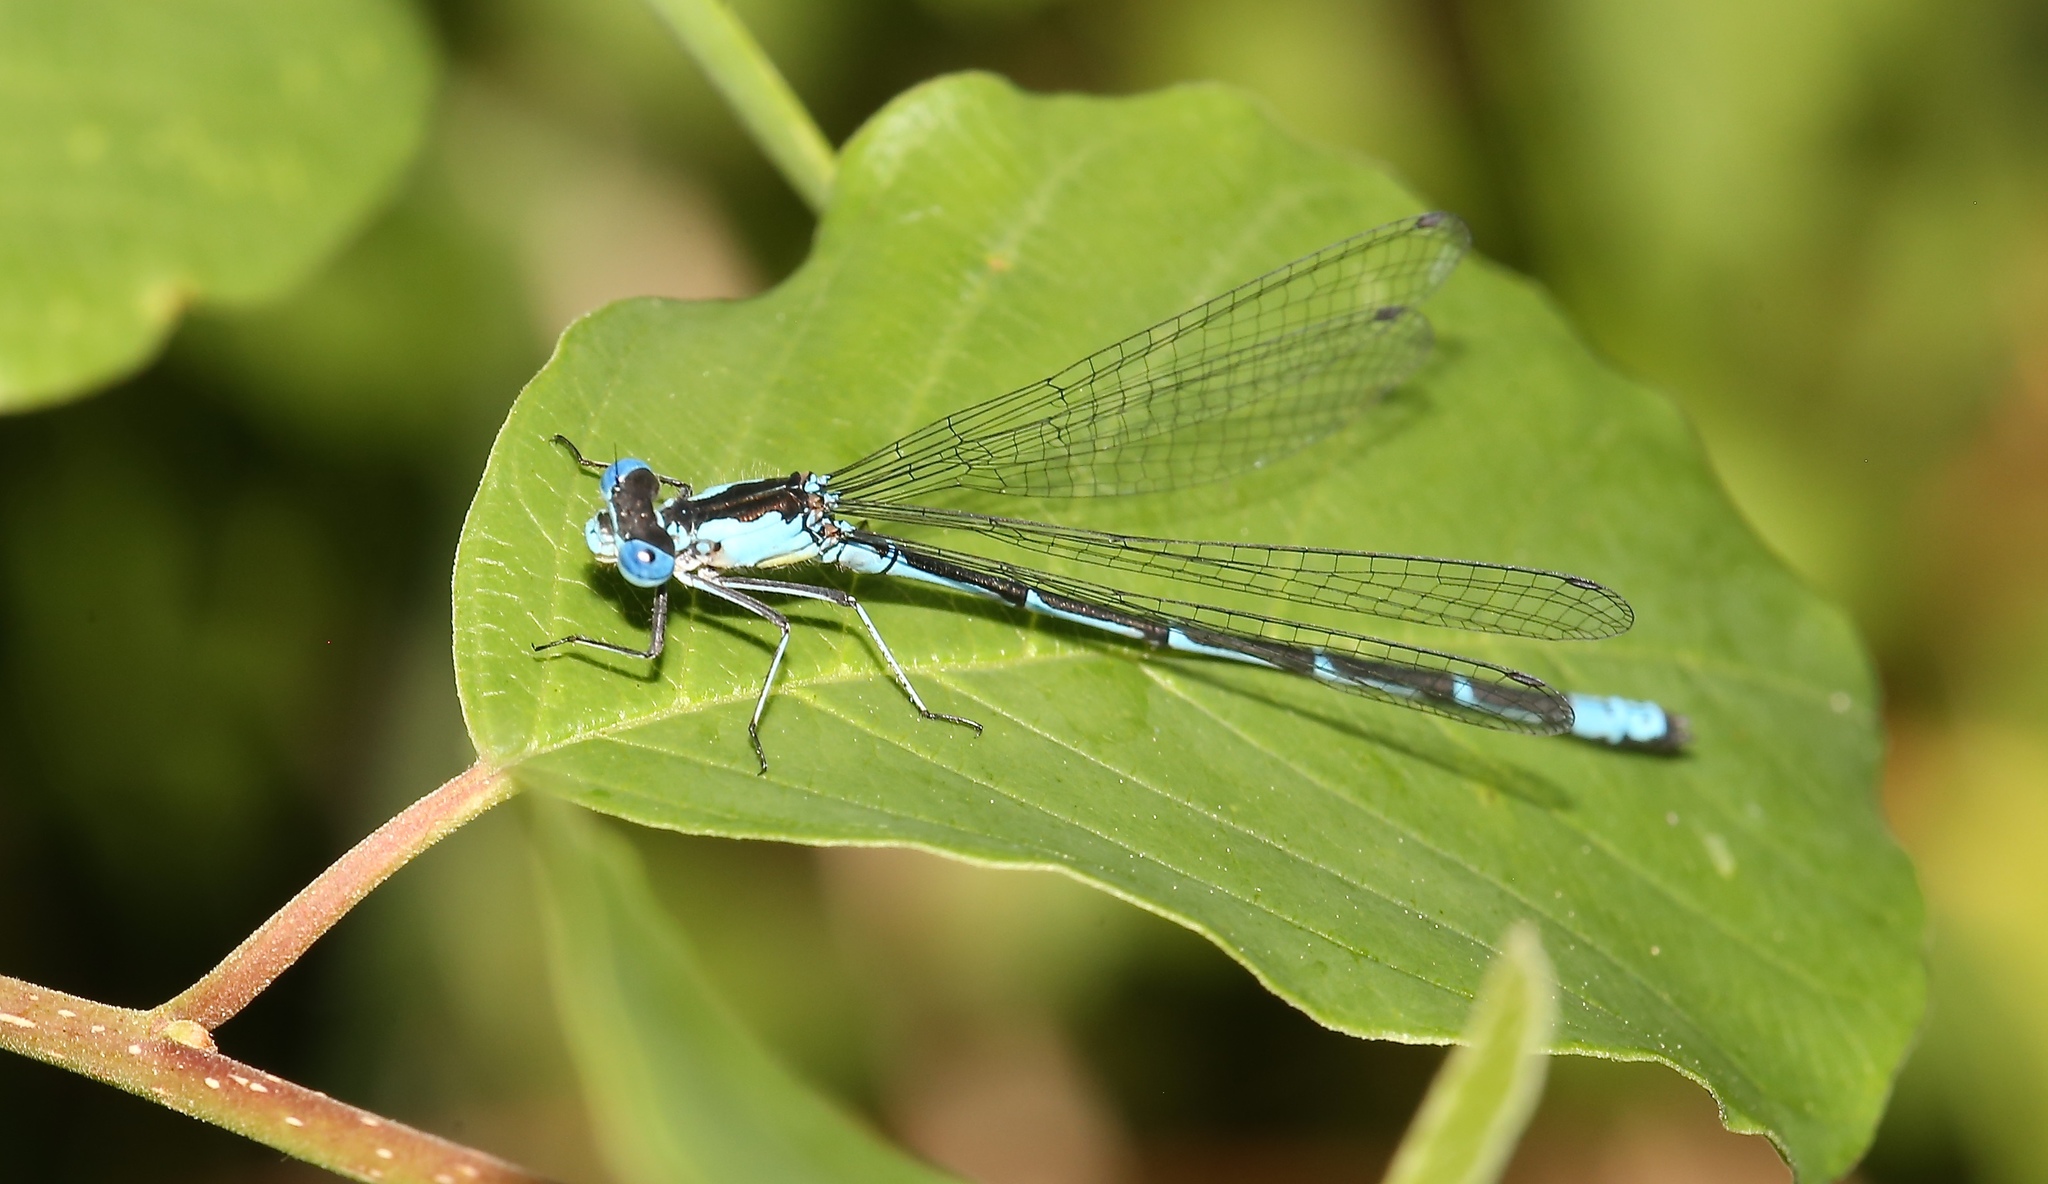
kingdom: Animalia
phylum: Arthropoda
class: Insecta
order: Odonata
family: Coenagrionidae
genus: Chromagrion
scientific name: Chromagrion conditum
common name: Aurora damsel
